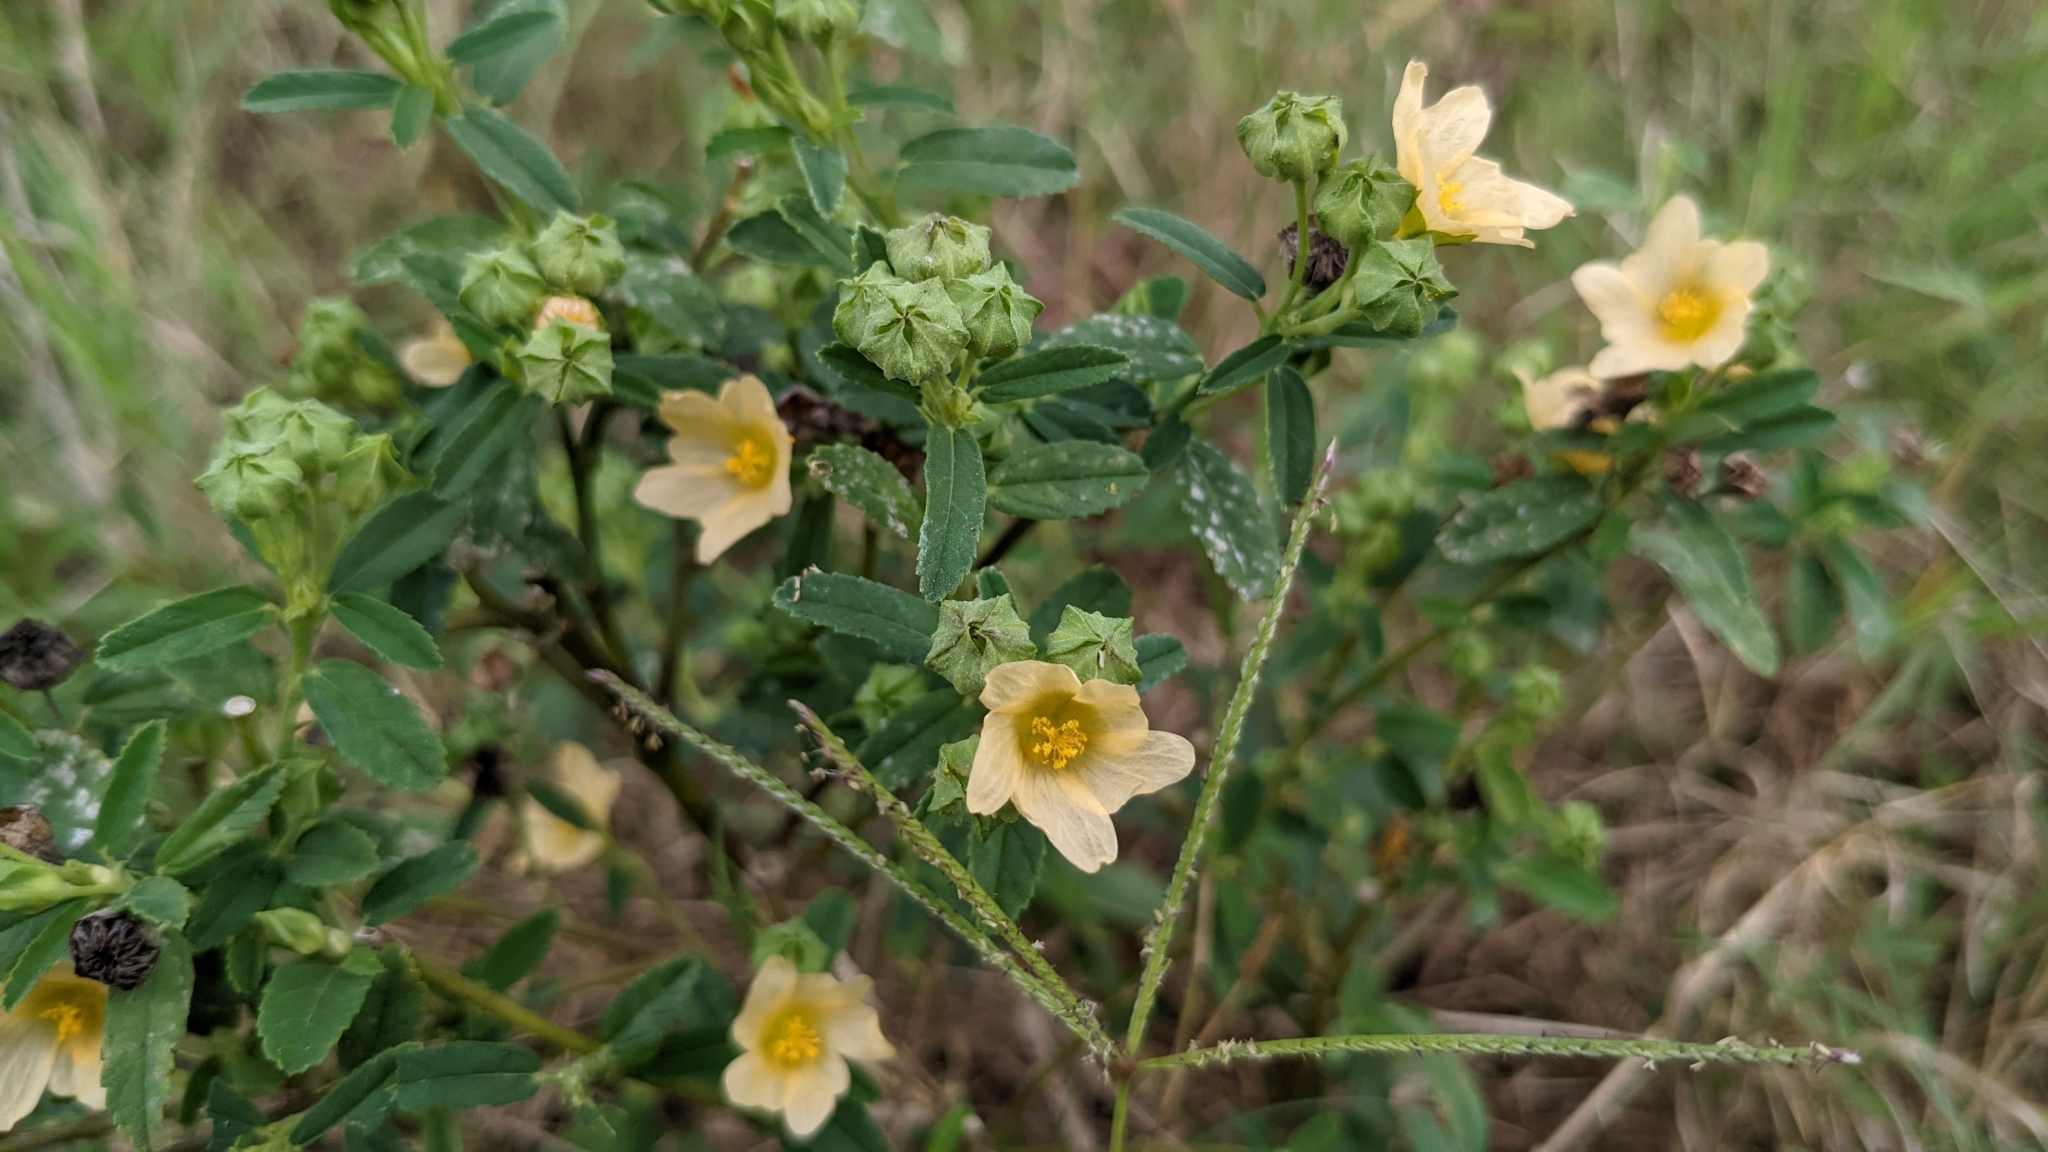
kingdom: Plantae
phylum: Tracheophyta
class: Magnoliopsida
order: Malvales
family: Malvaceae
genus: Sida
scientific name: Sida rhombifolia
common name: Queensland-hemp
